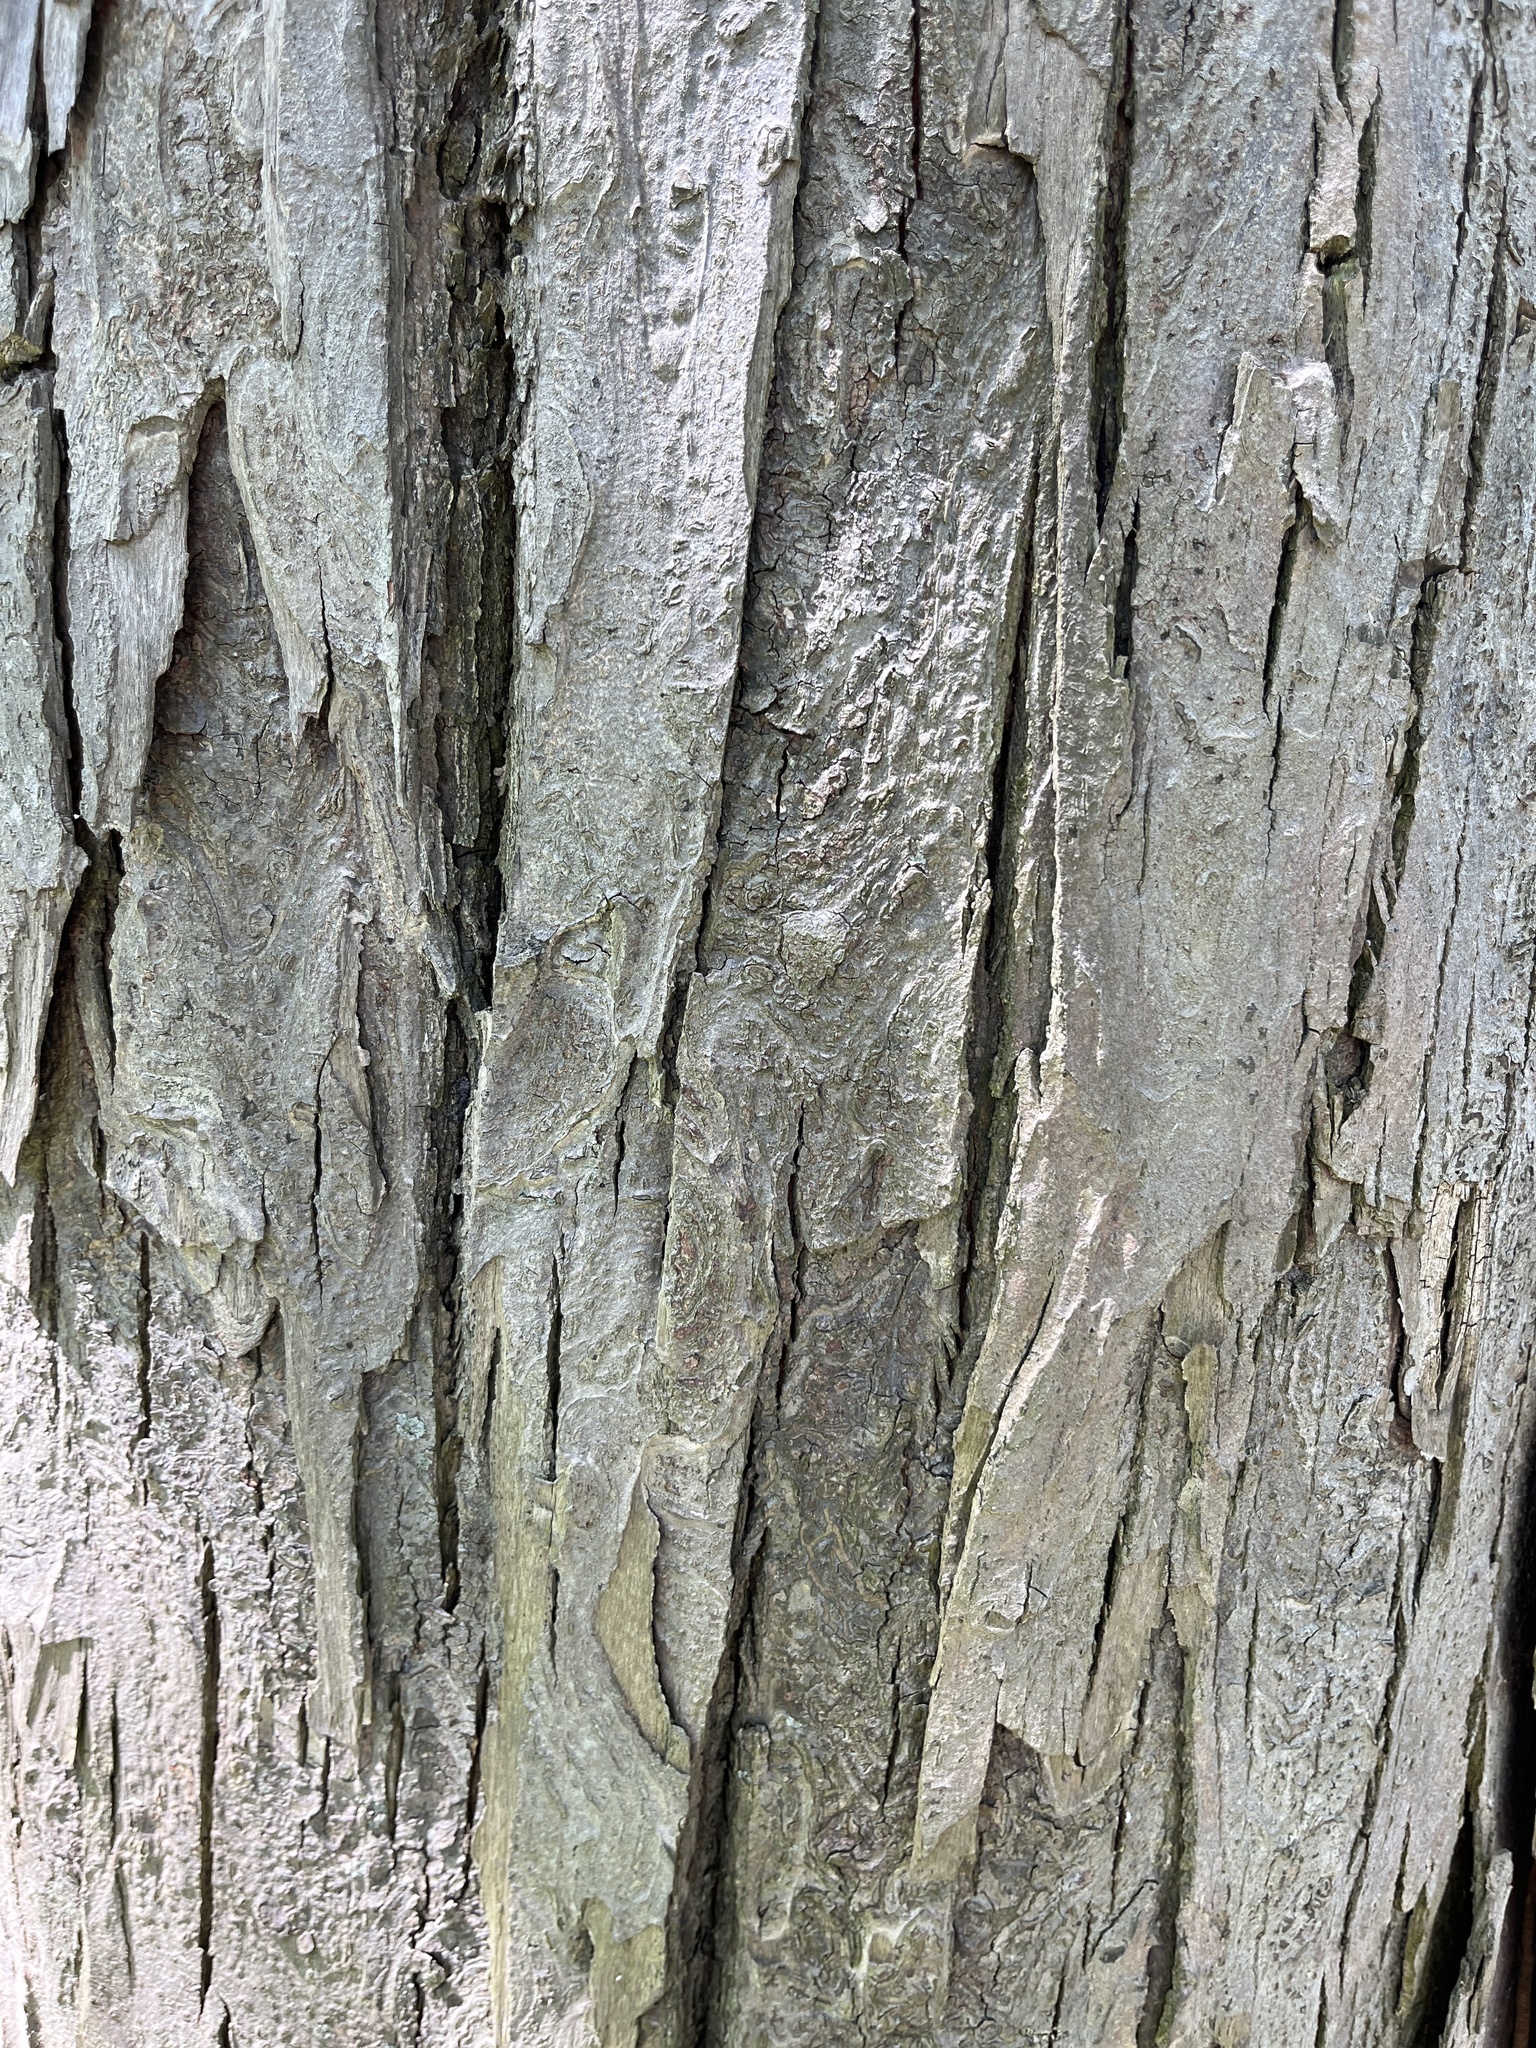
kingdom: Plantae
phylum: Tracheophyta
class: Magnoliopsida
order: Fagales
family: Juglandaceae
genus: Carya
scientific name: Carya ovata
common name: Shagbark hickory
